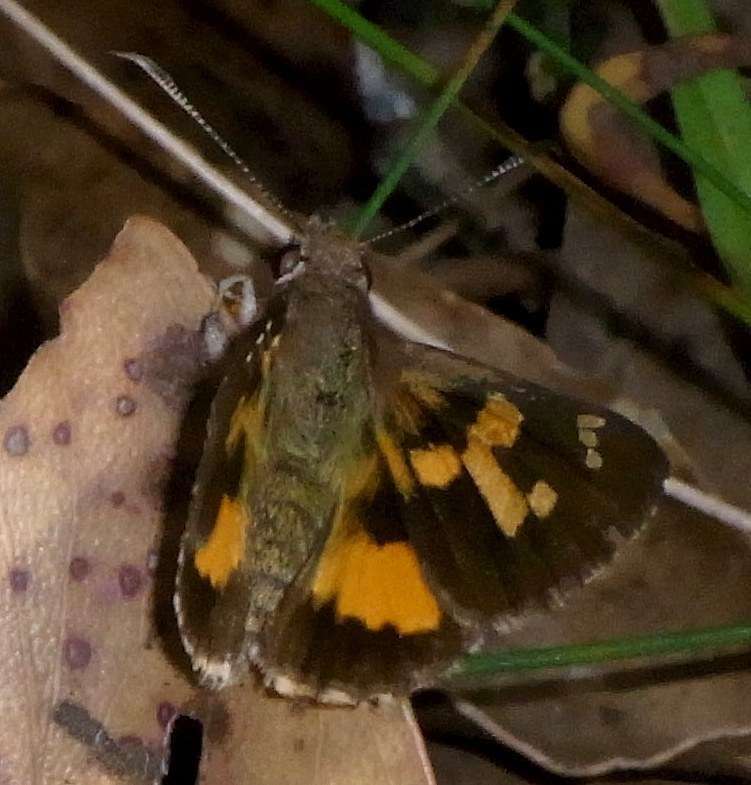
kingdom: Animalia
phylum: Arthropoda
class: Insecta
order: Lepidoptera
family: Hesperiidae
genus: Trapezites
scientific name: Trapezites phigalioides
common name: Montane ochre
